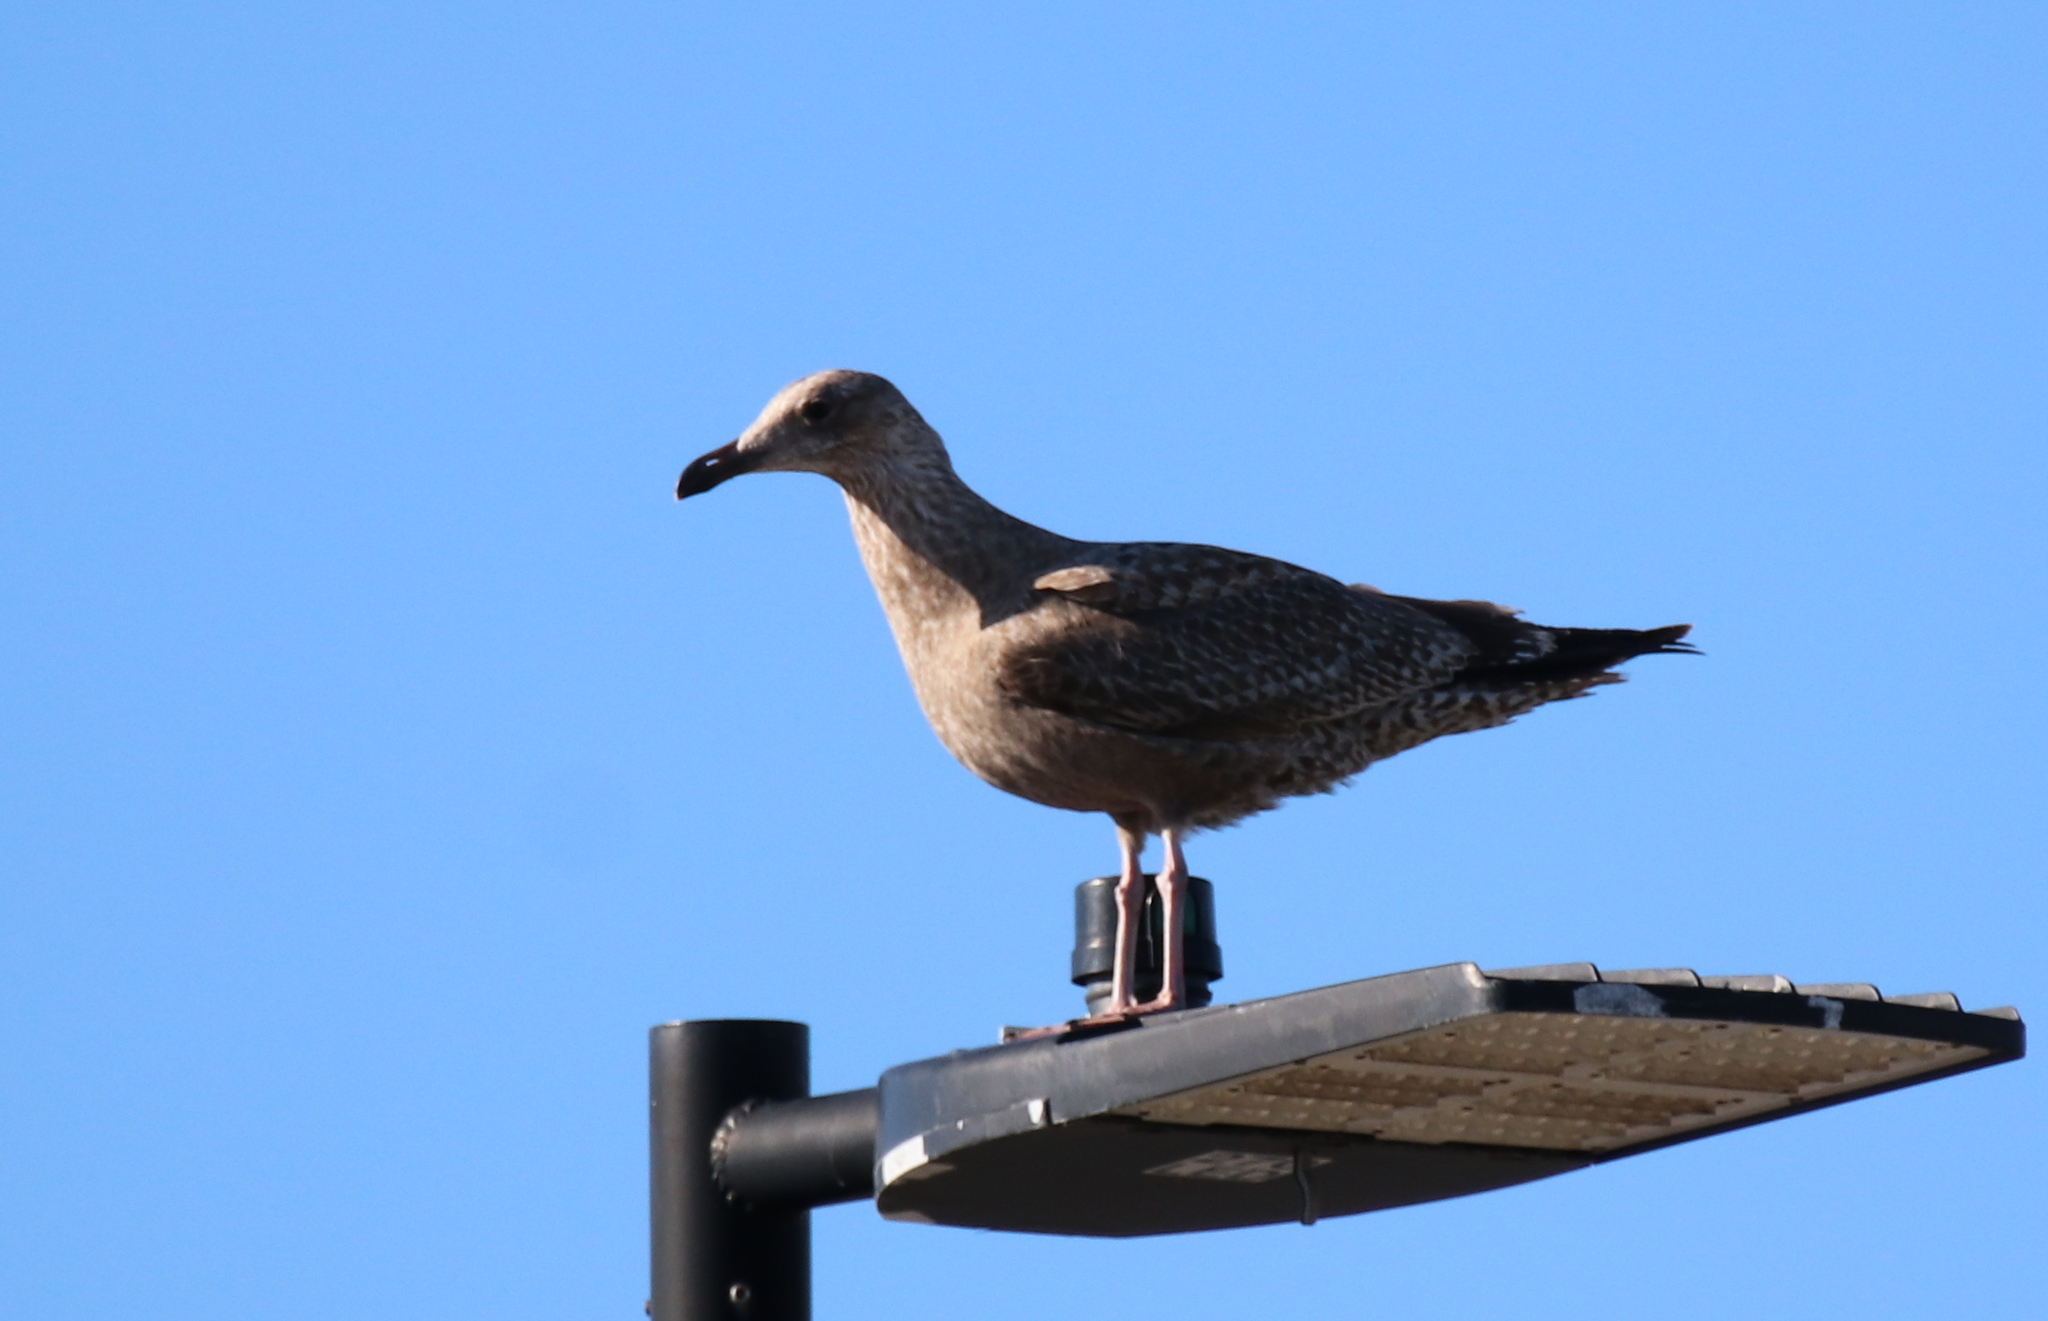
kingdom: Animalia
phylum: Chordata
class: Aves
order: Charadriiformes
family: Laridae
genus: Larus
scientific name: Larus argentatus
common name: Herring gull
